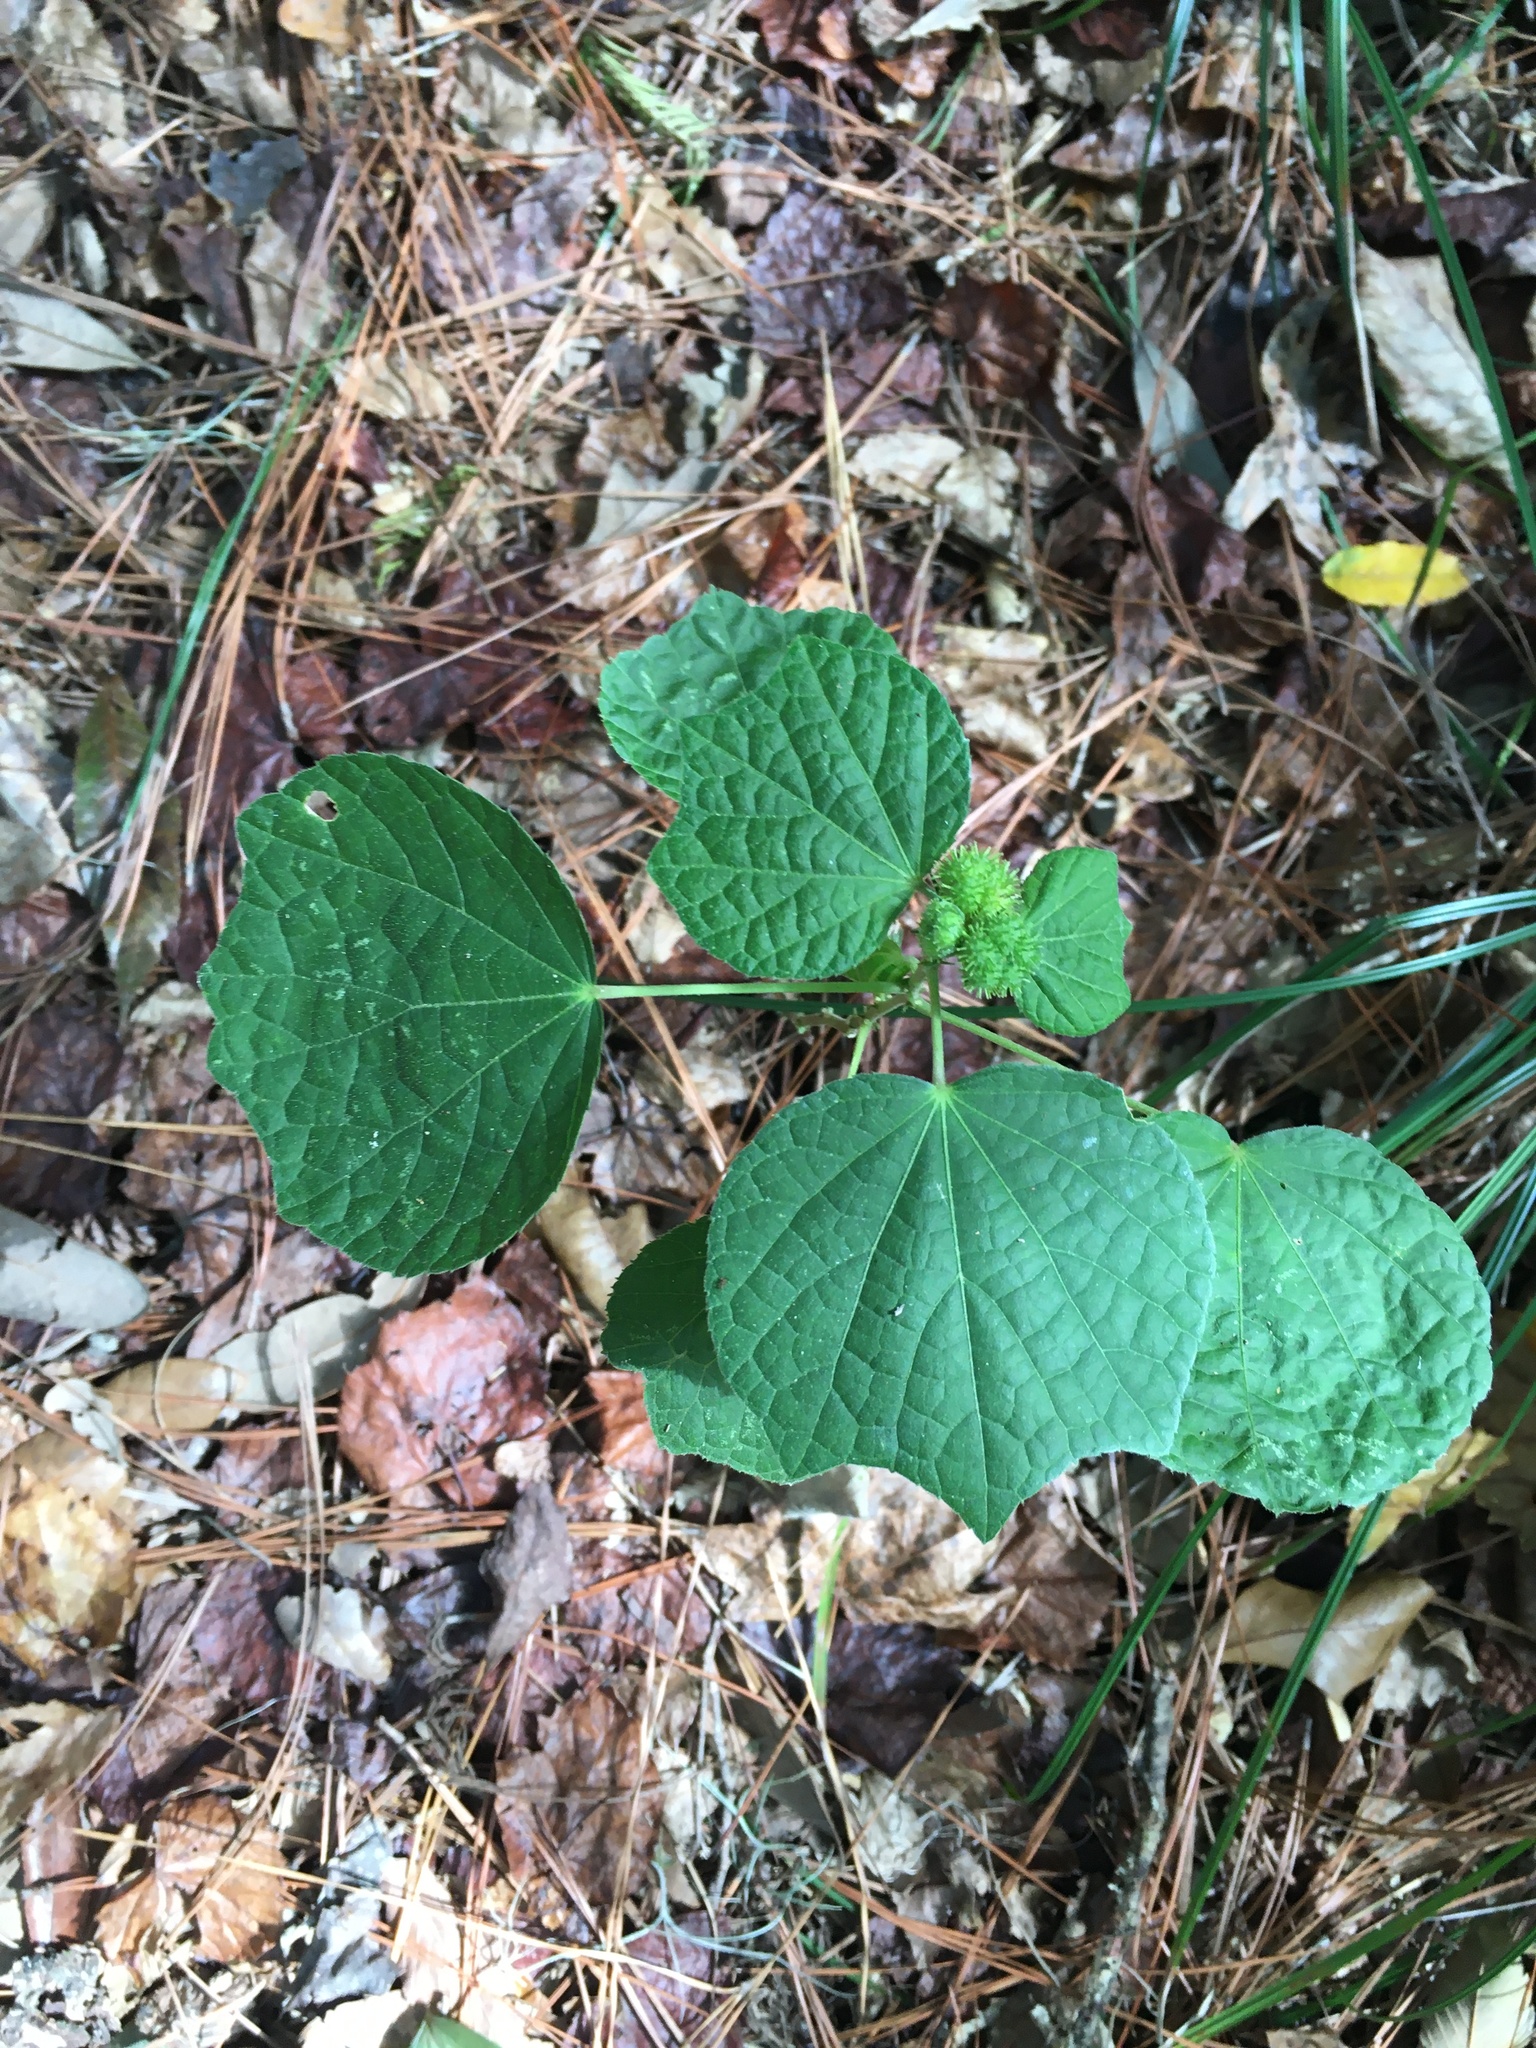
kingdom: Plantae
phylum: Tracheophyta
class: Magnoliopsida
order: Malvales
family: Malvaceae
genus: Urena
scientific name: Urena lobata
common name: Caesarweed
